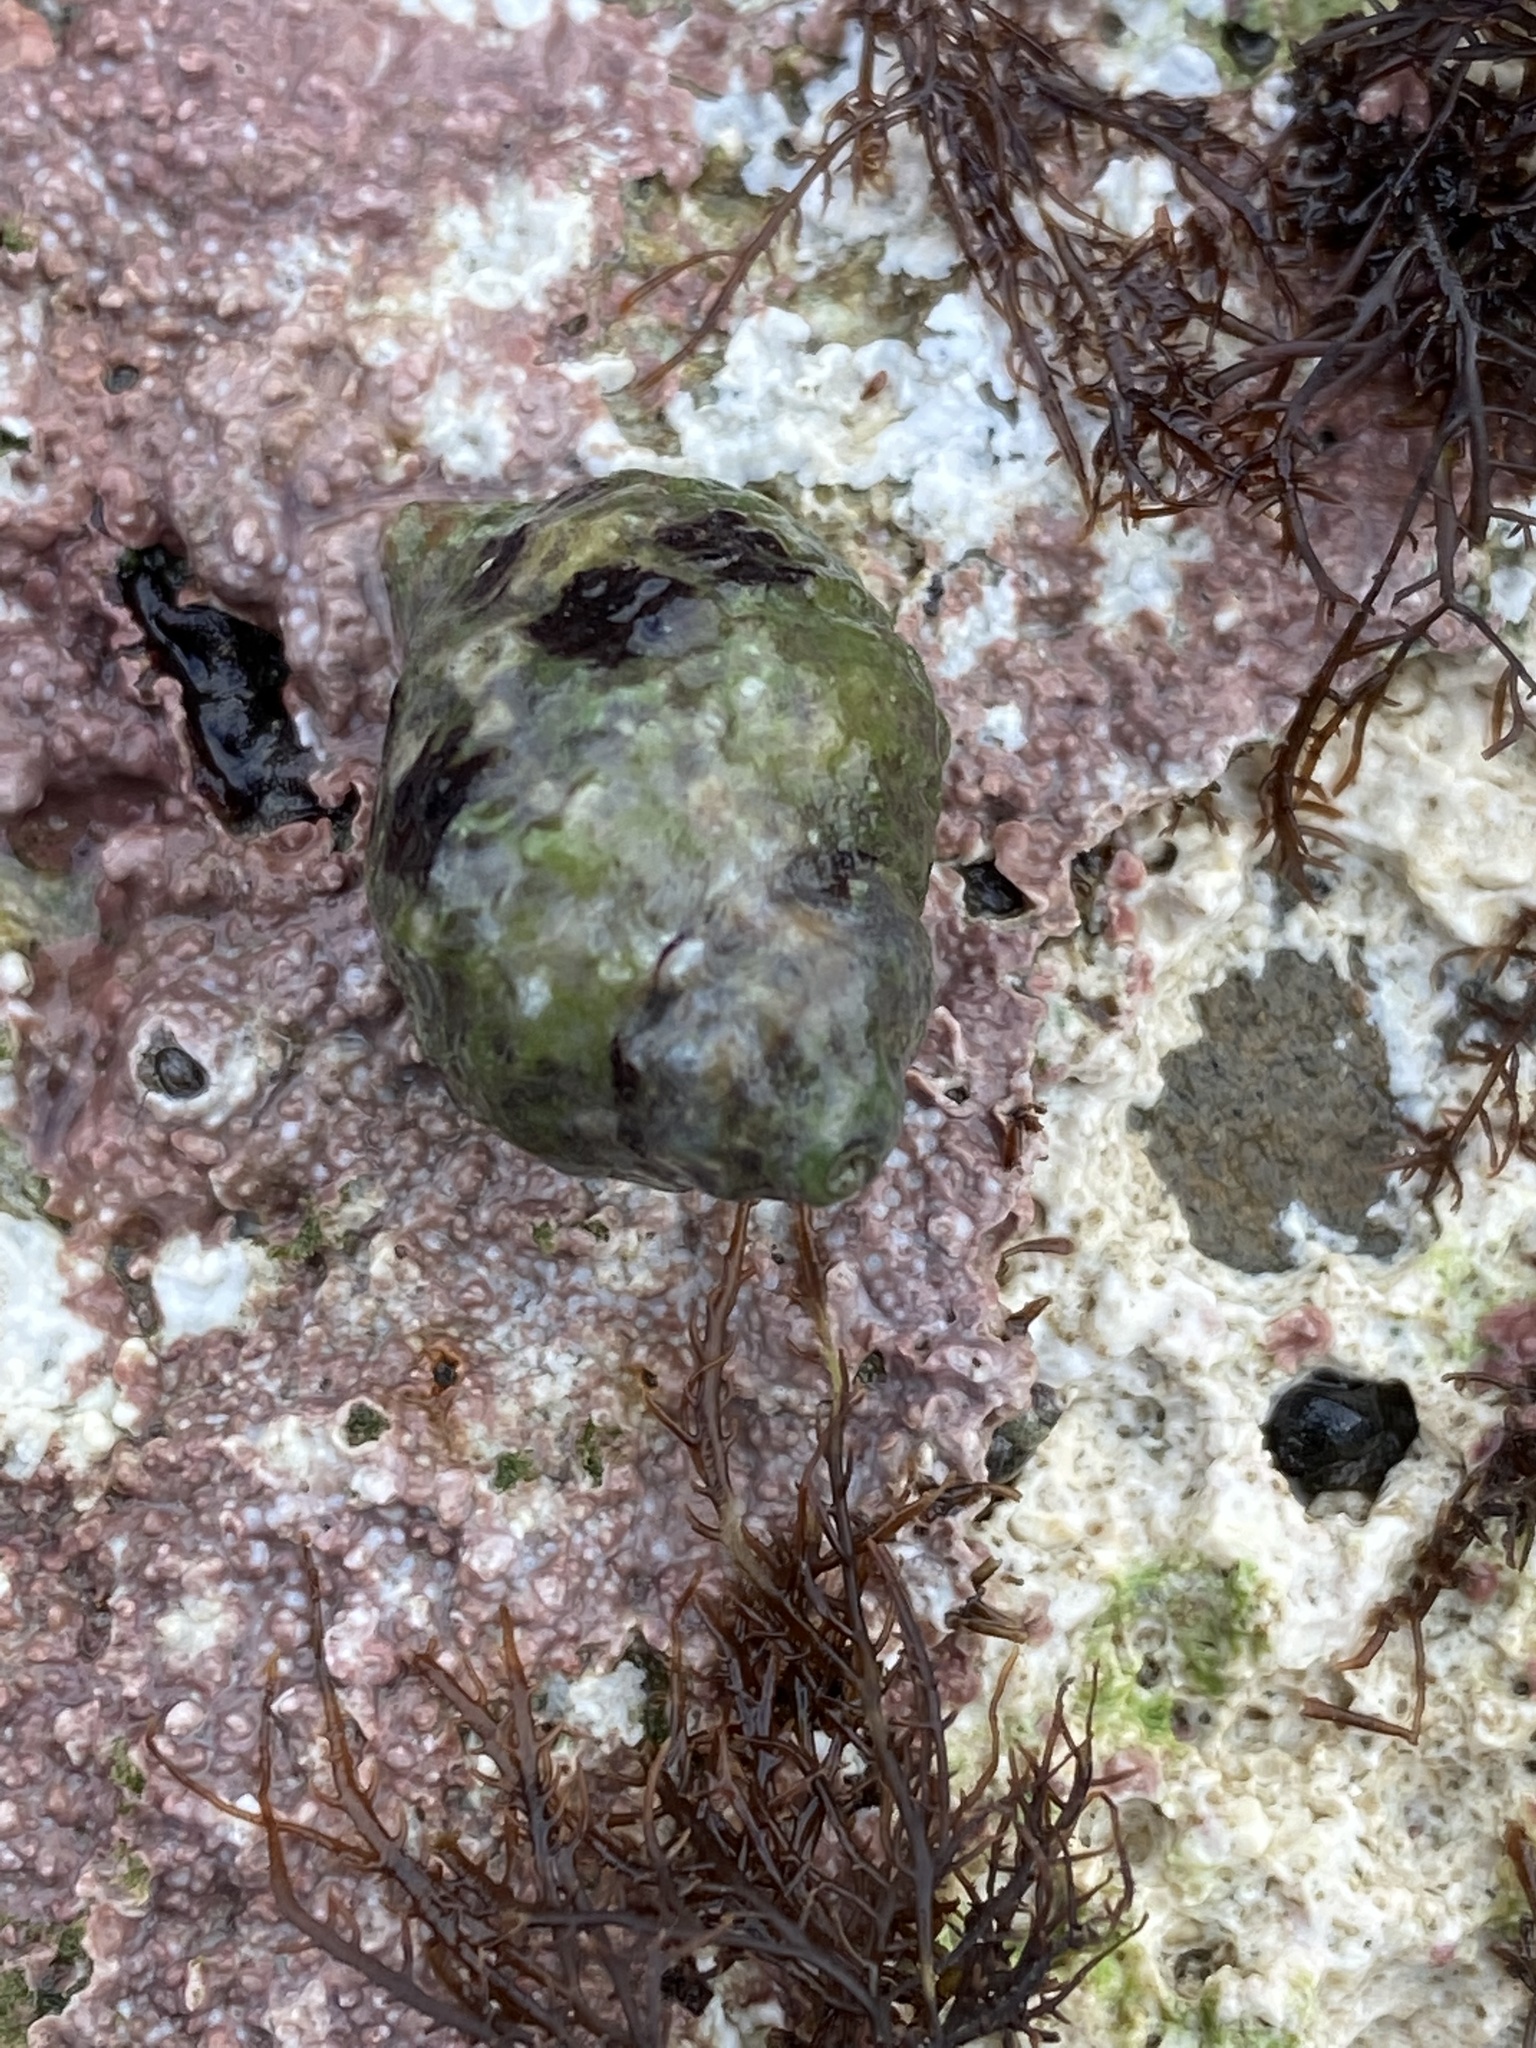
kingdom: Animalia
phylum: Mollusca
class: Gastropoda
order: Neogastropoda
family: Muricidae
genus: Paciocinebrina
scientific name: Paciocinebrina circumtexta
